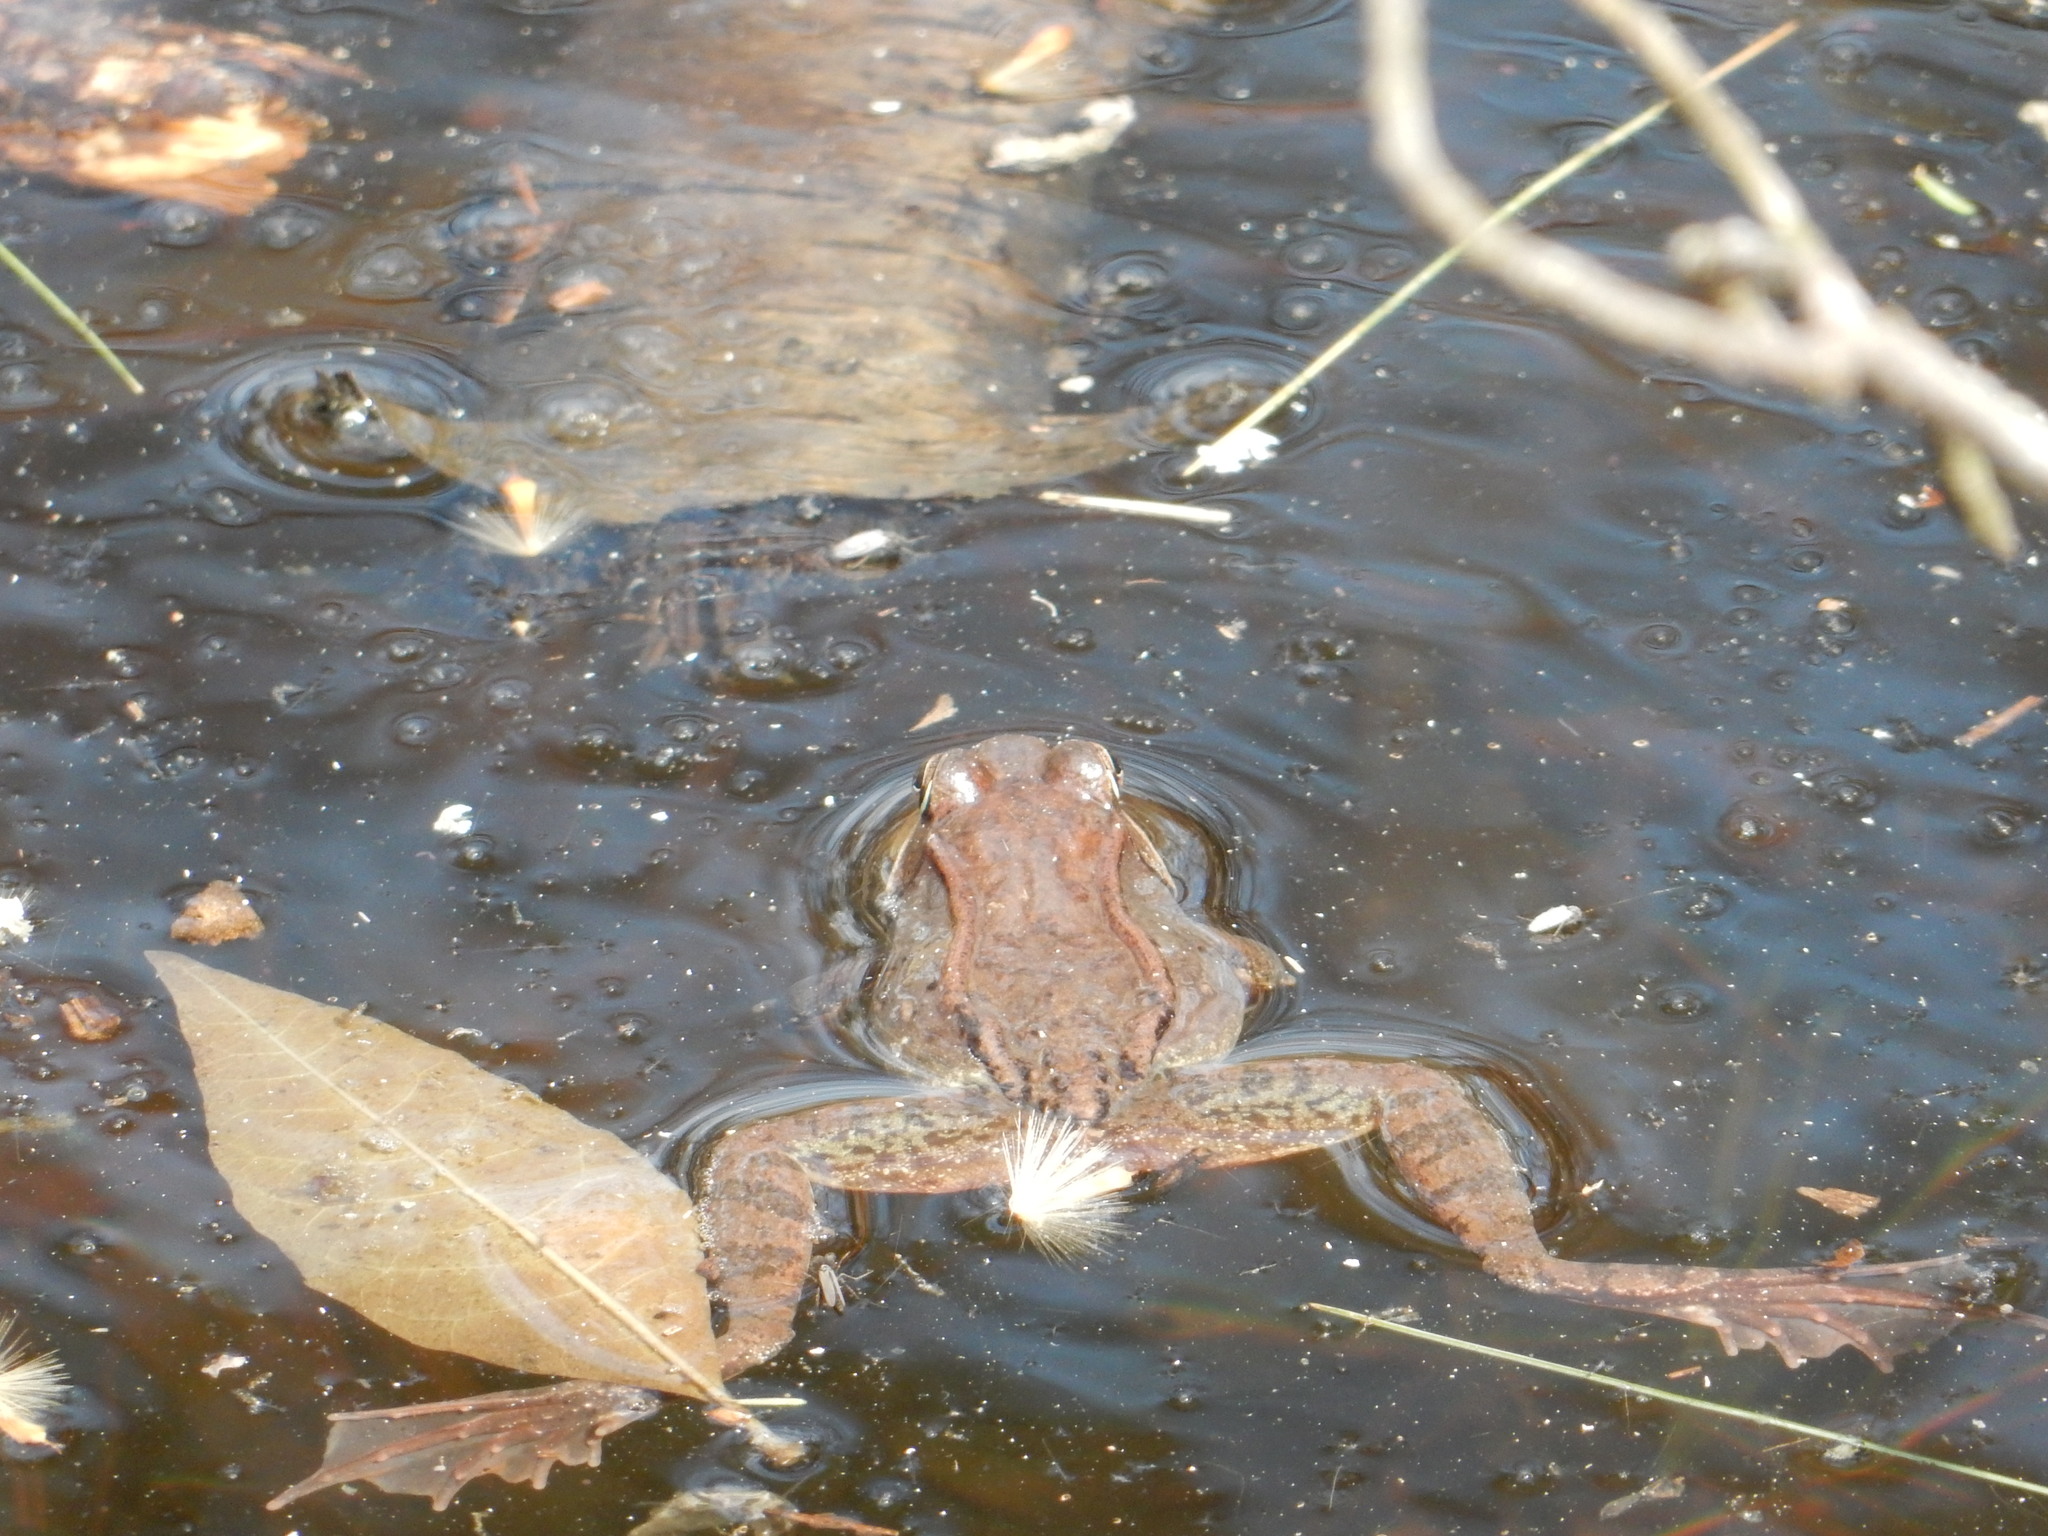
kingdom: Animalia
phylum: Chordata
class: Amphibia
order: Anura
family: Ranidae
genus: Lithobates
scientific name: Lithobates sylvaticus
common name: Wood frog
